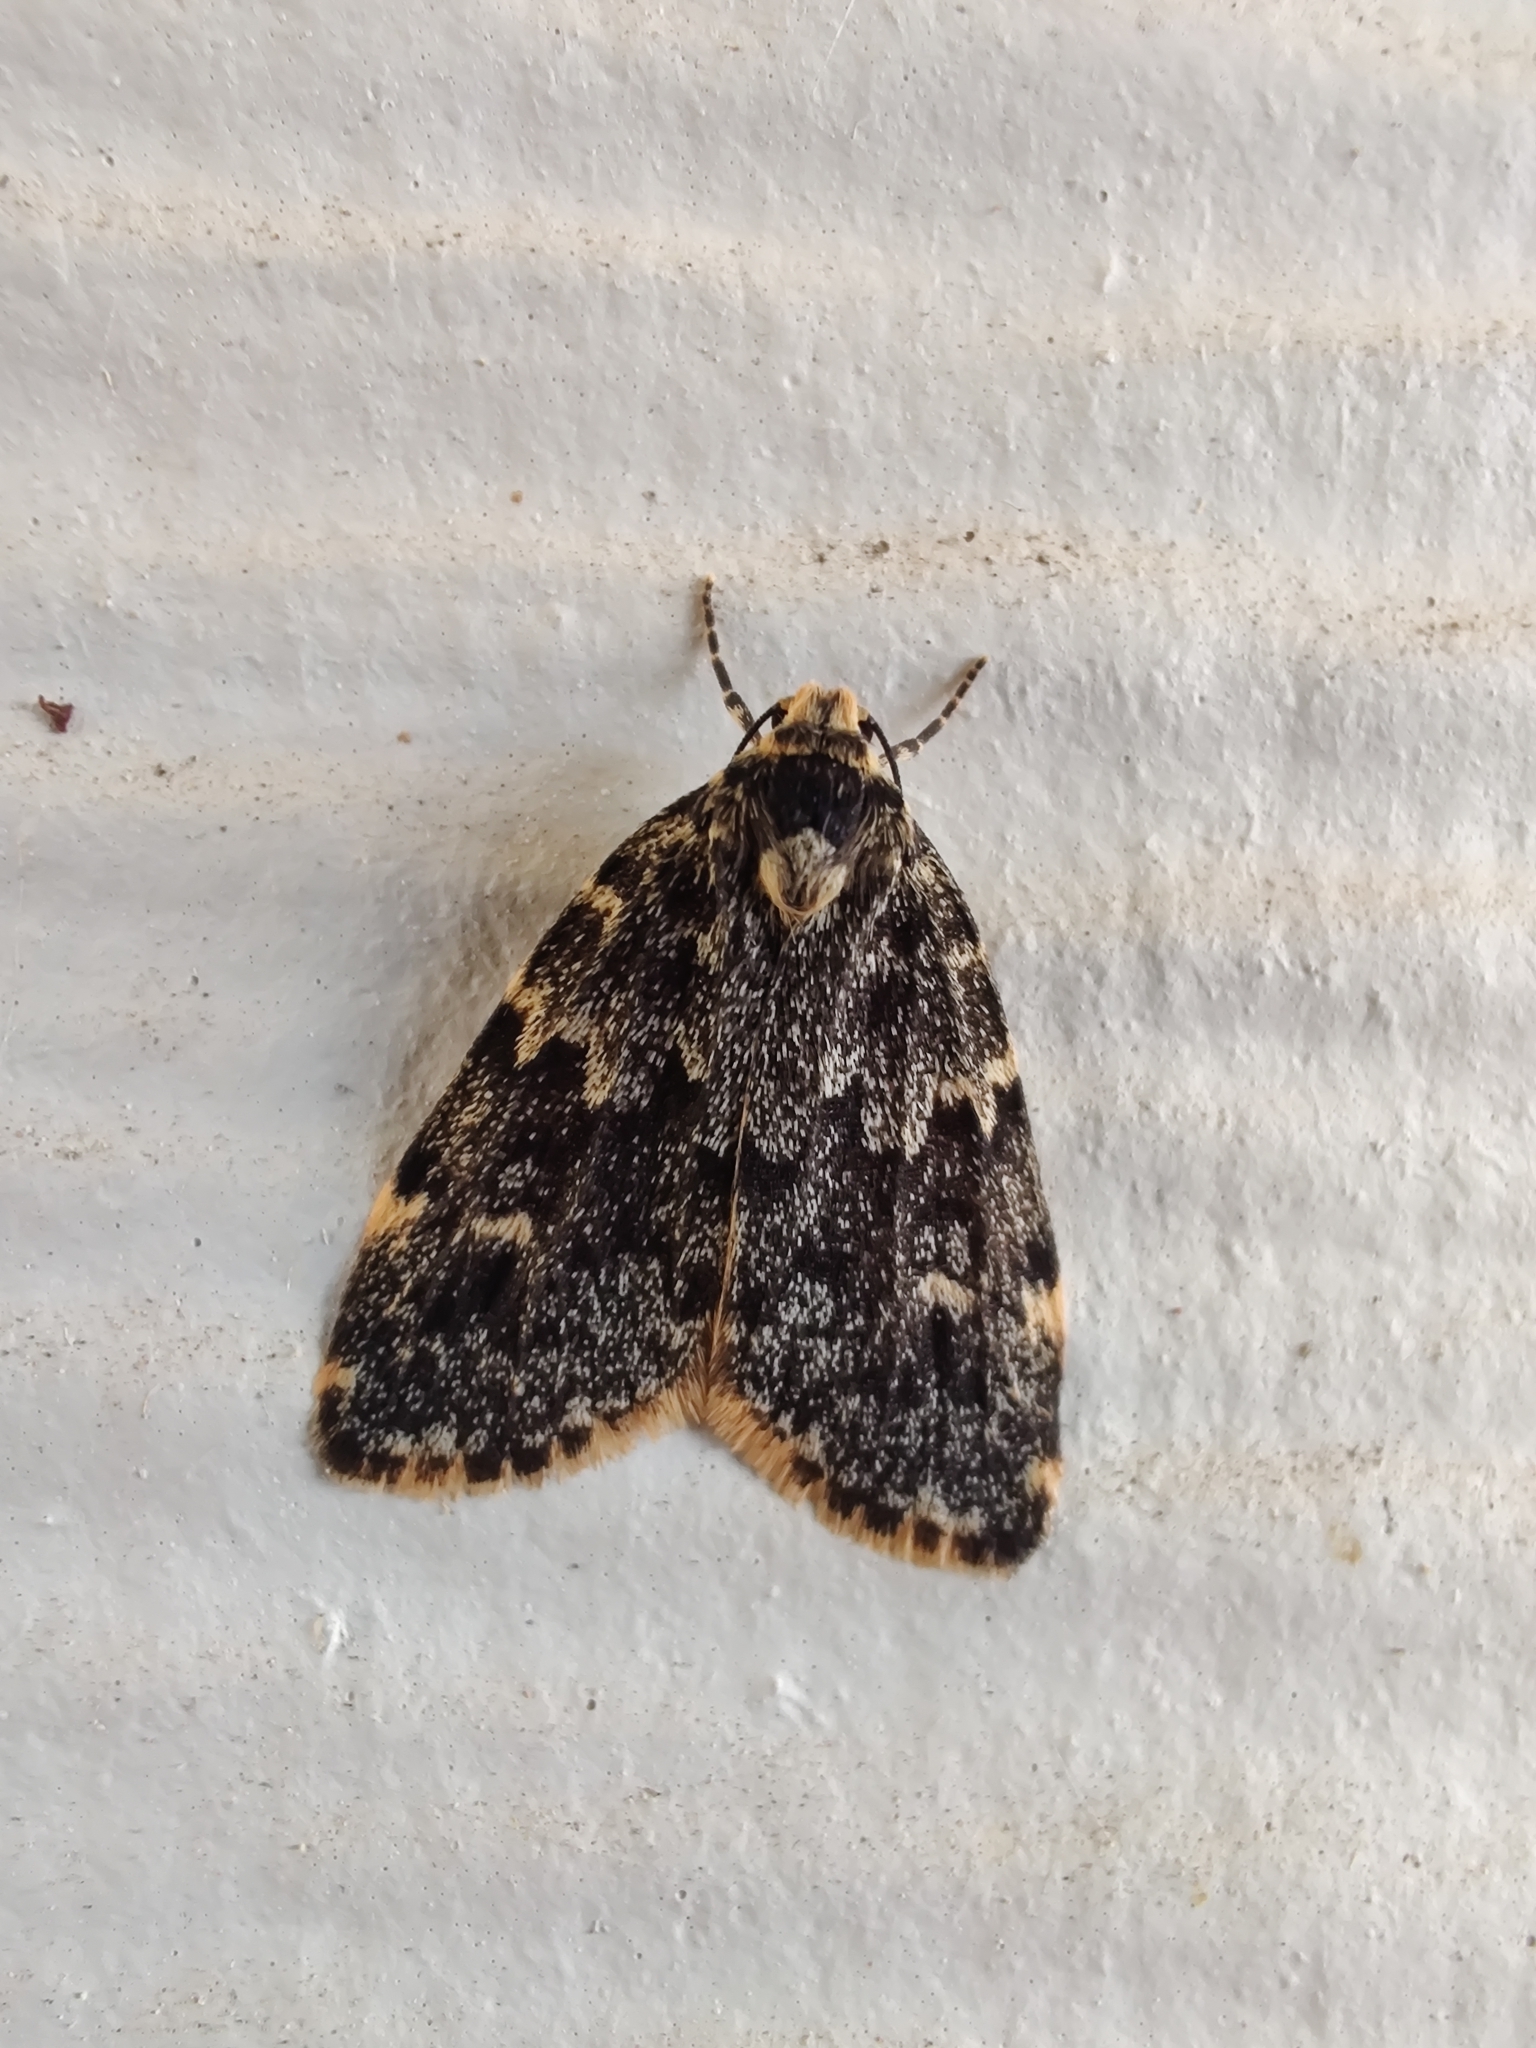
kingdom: Animalia
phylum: Arthropoda
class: Insecta
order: Lepidoptera
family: Erebidae
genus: Halone
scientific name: Halone coryphoea
